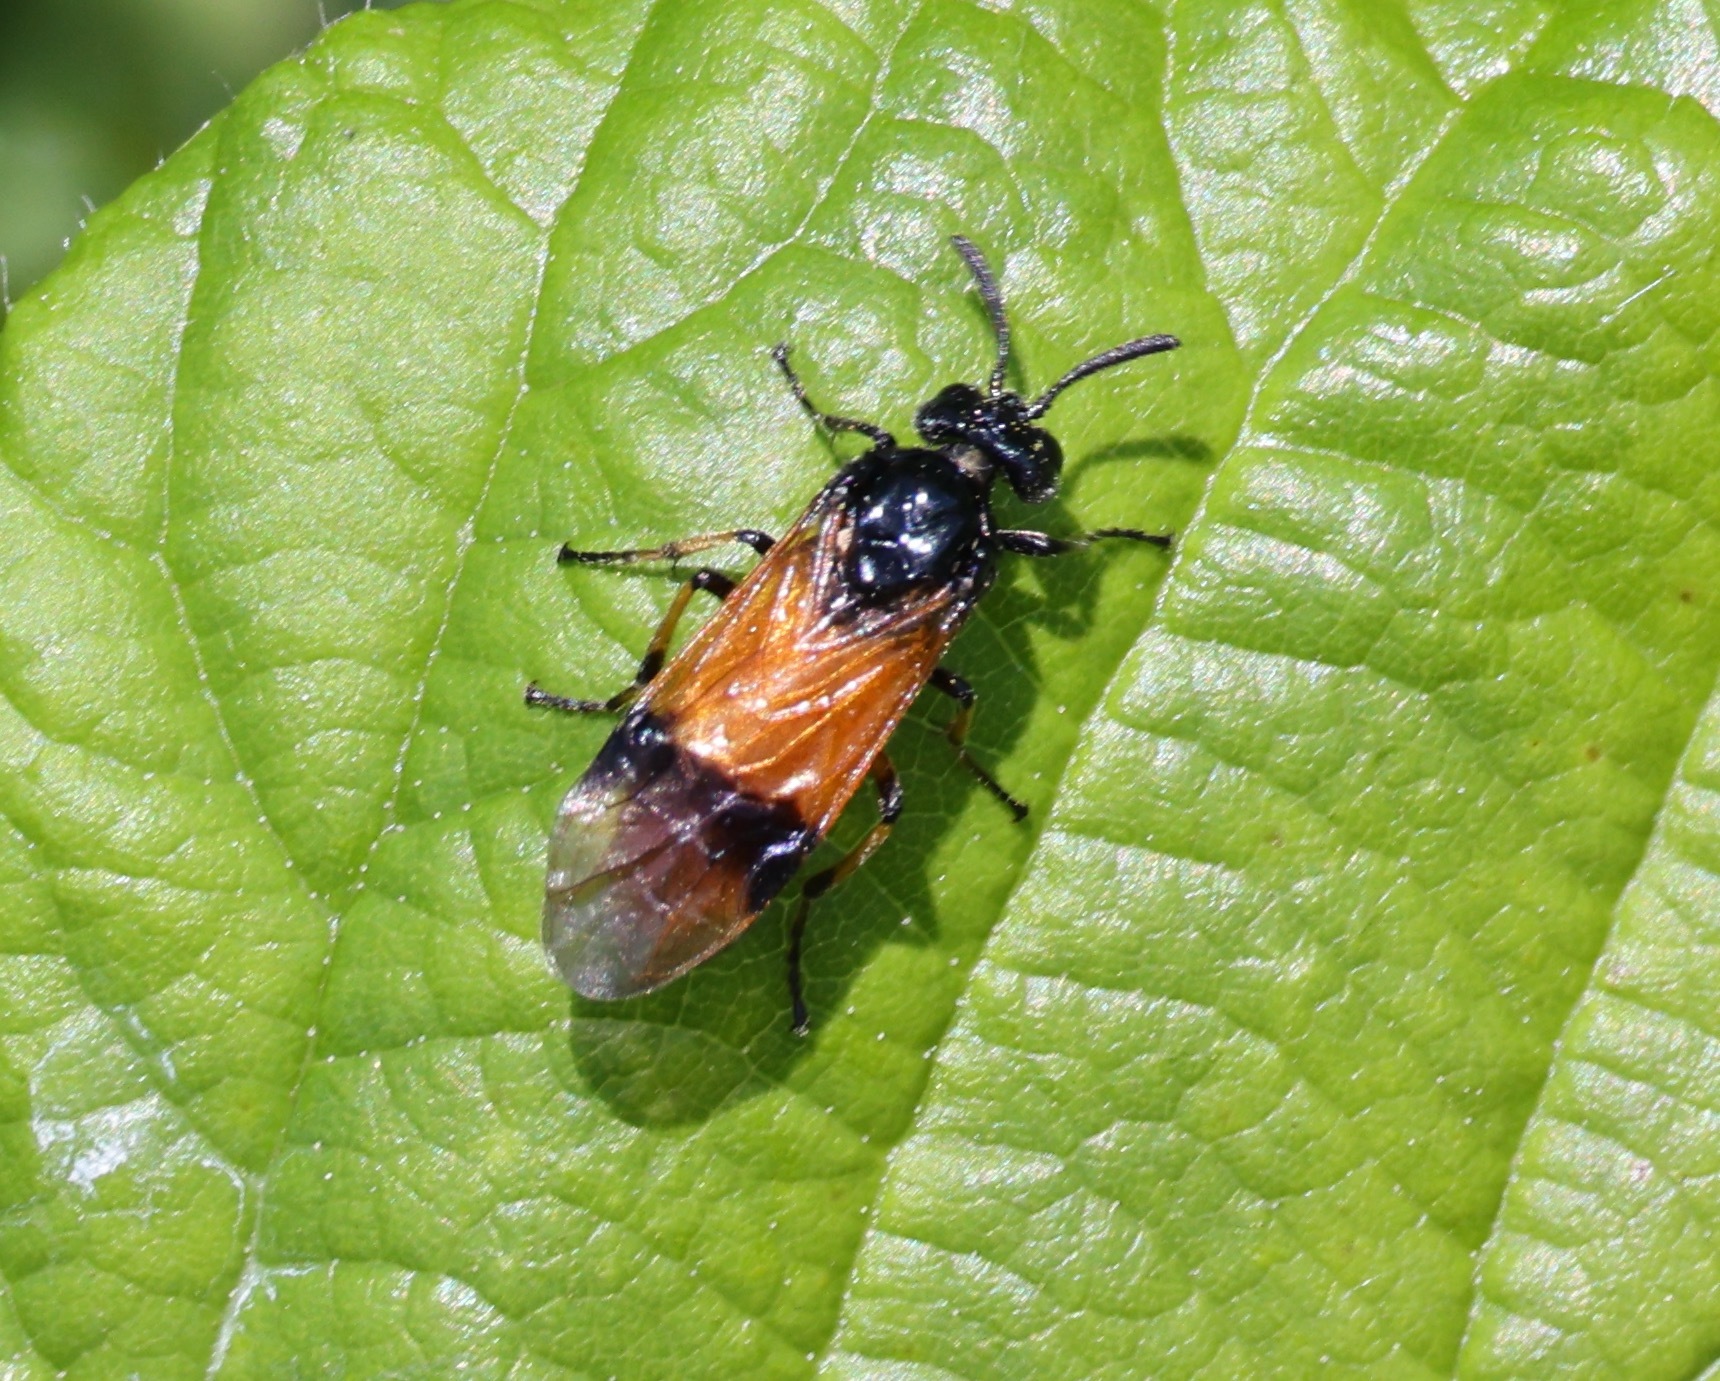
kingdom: Animalia
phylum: Arthropoda
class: Insecta
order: Hymenoptera
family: Argidae
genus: Arge
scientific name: Arge cyanocrocea
